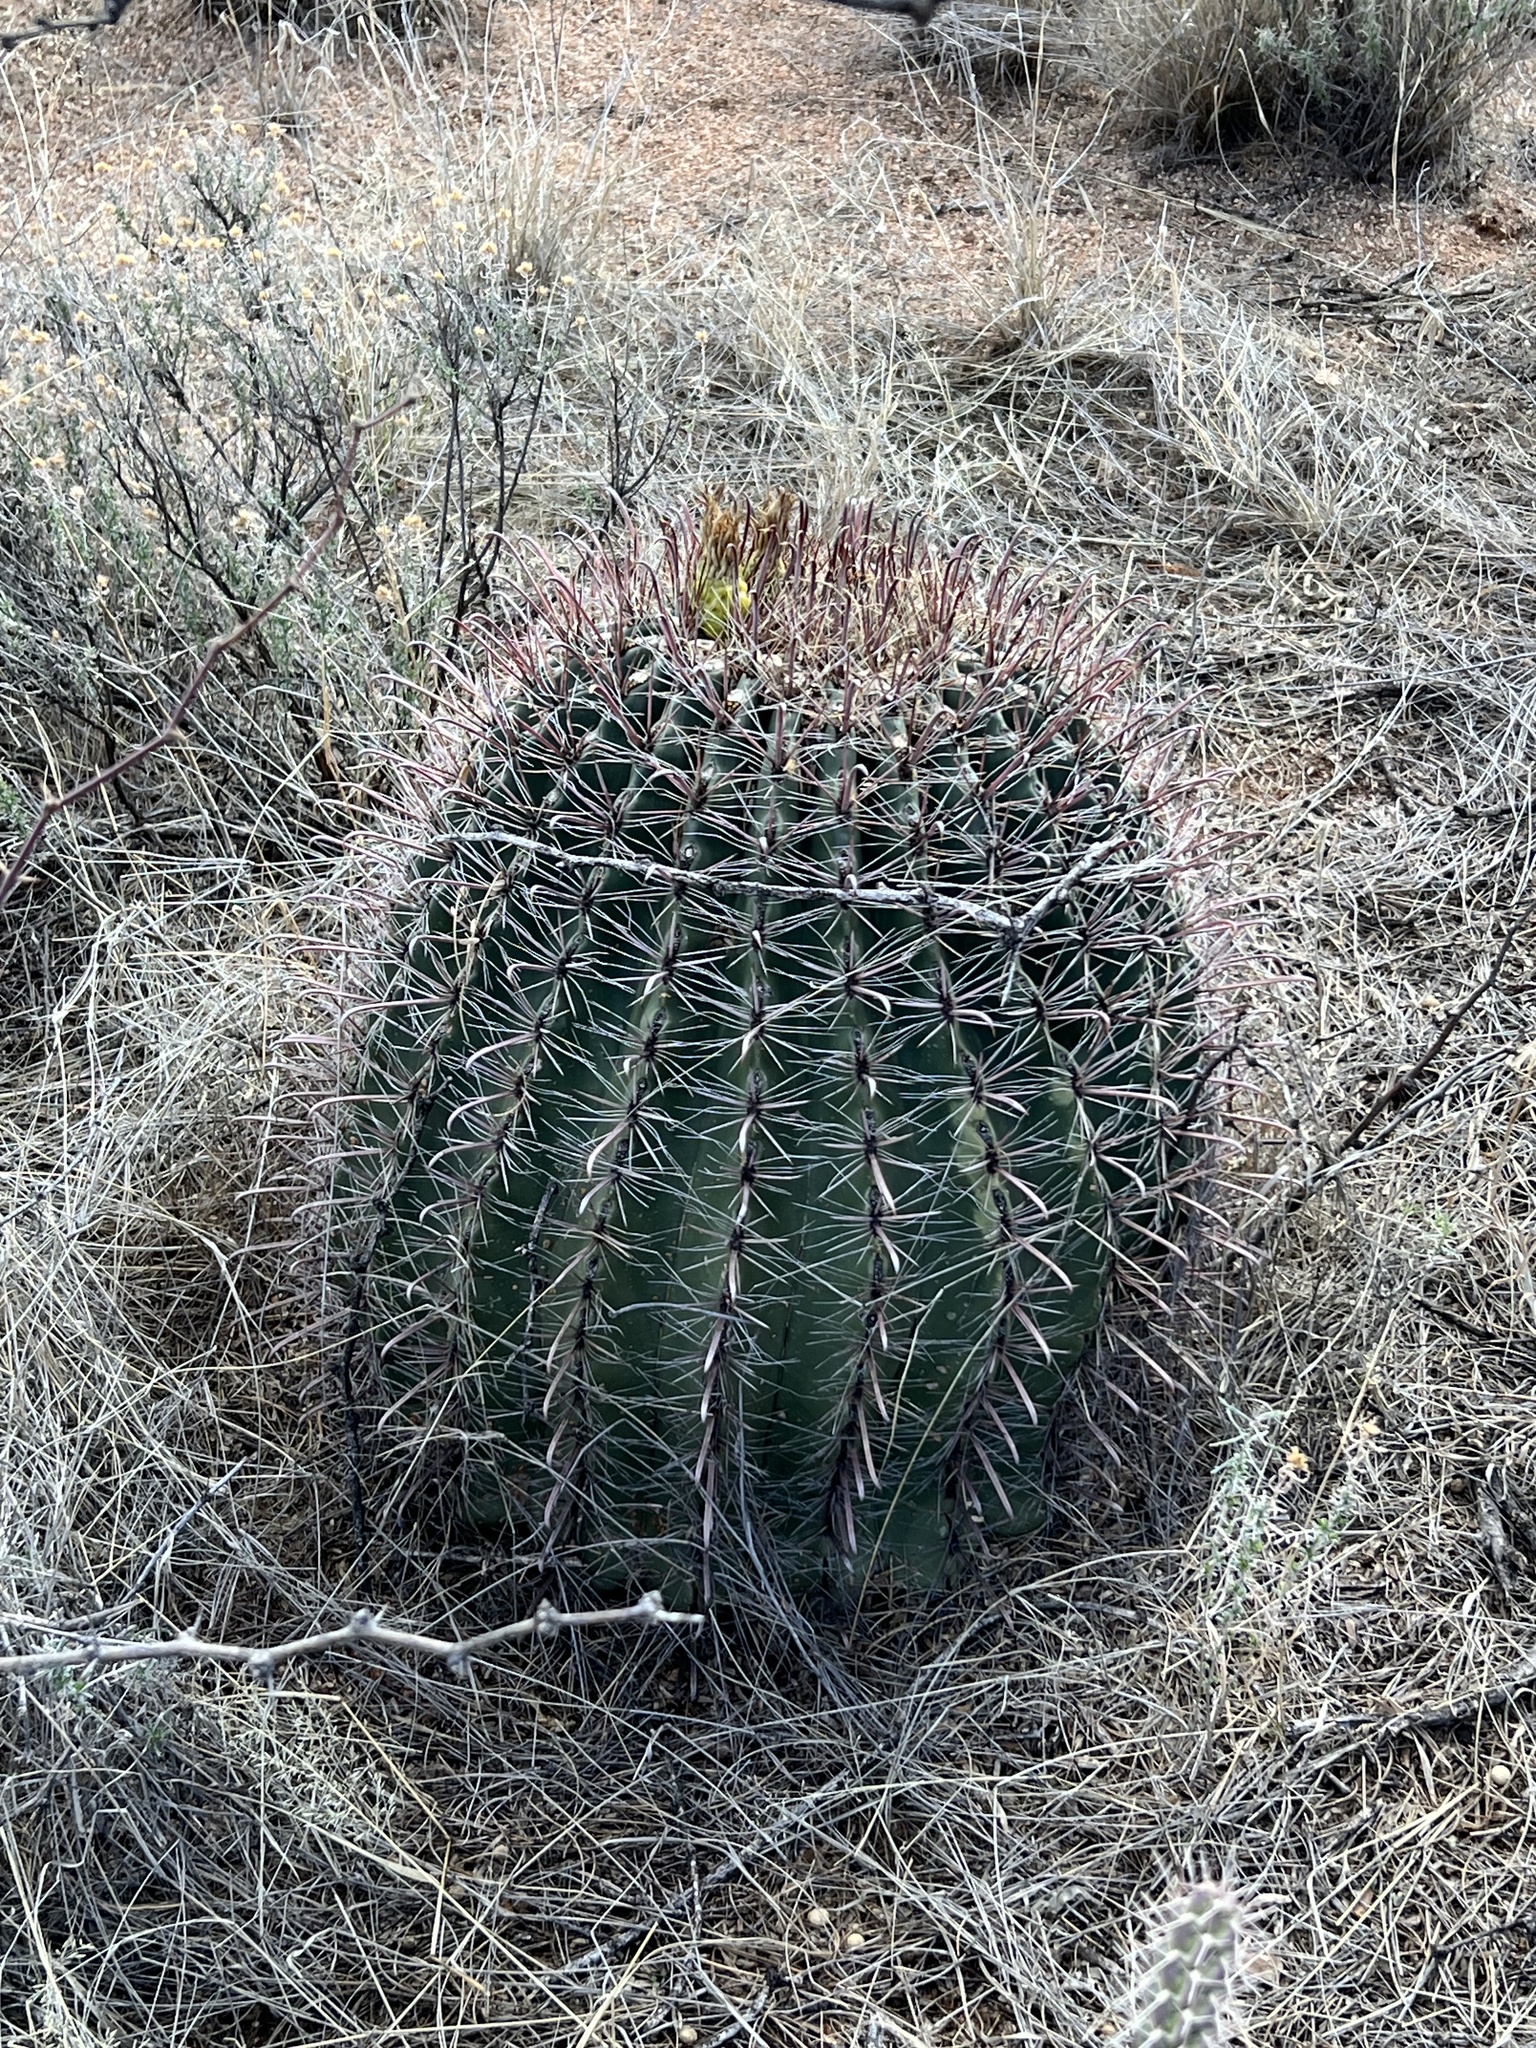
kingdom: Plantae
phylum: Tracheophyta
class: Magnoliopsida
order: Caryophyllales
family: Cactaceae
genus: Ferocactus
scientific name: Ferocactus wislizeni
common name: Candy barrel cactus
